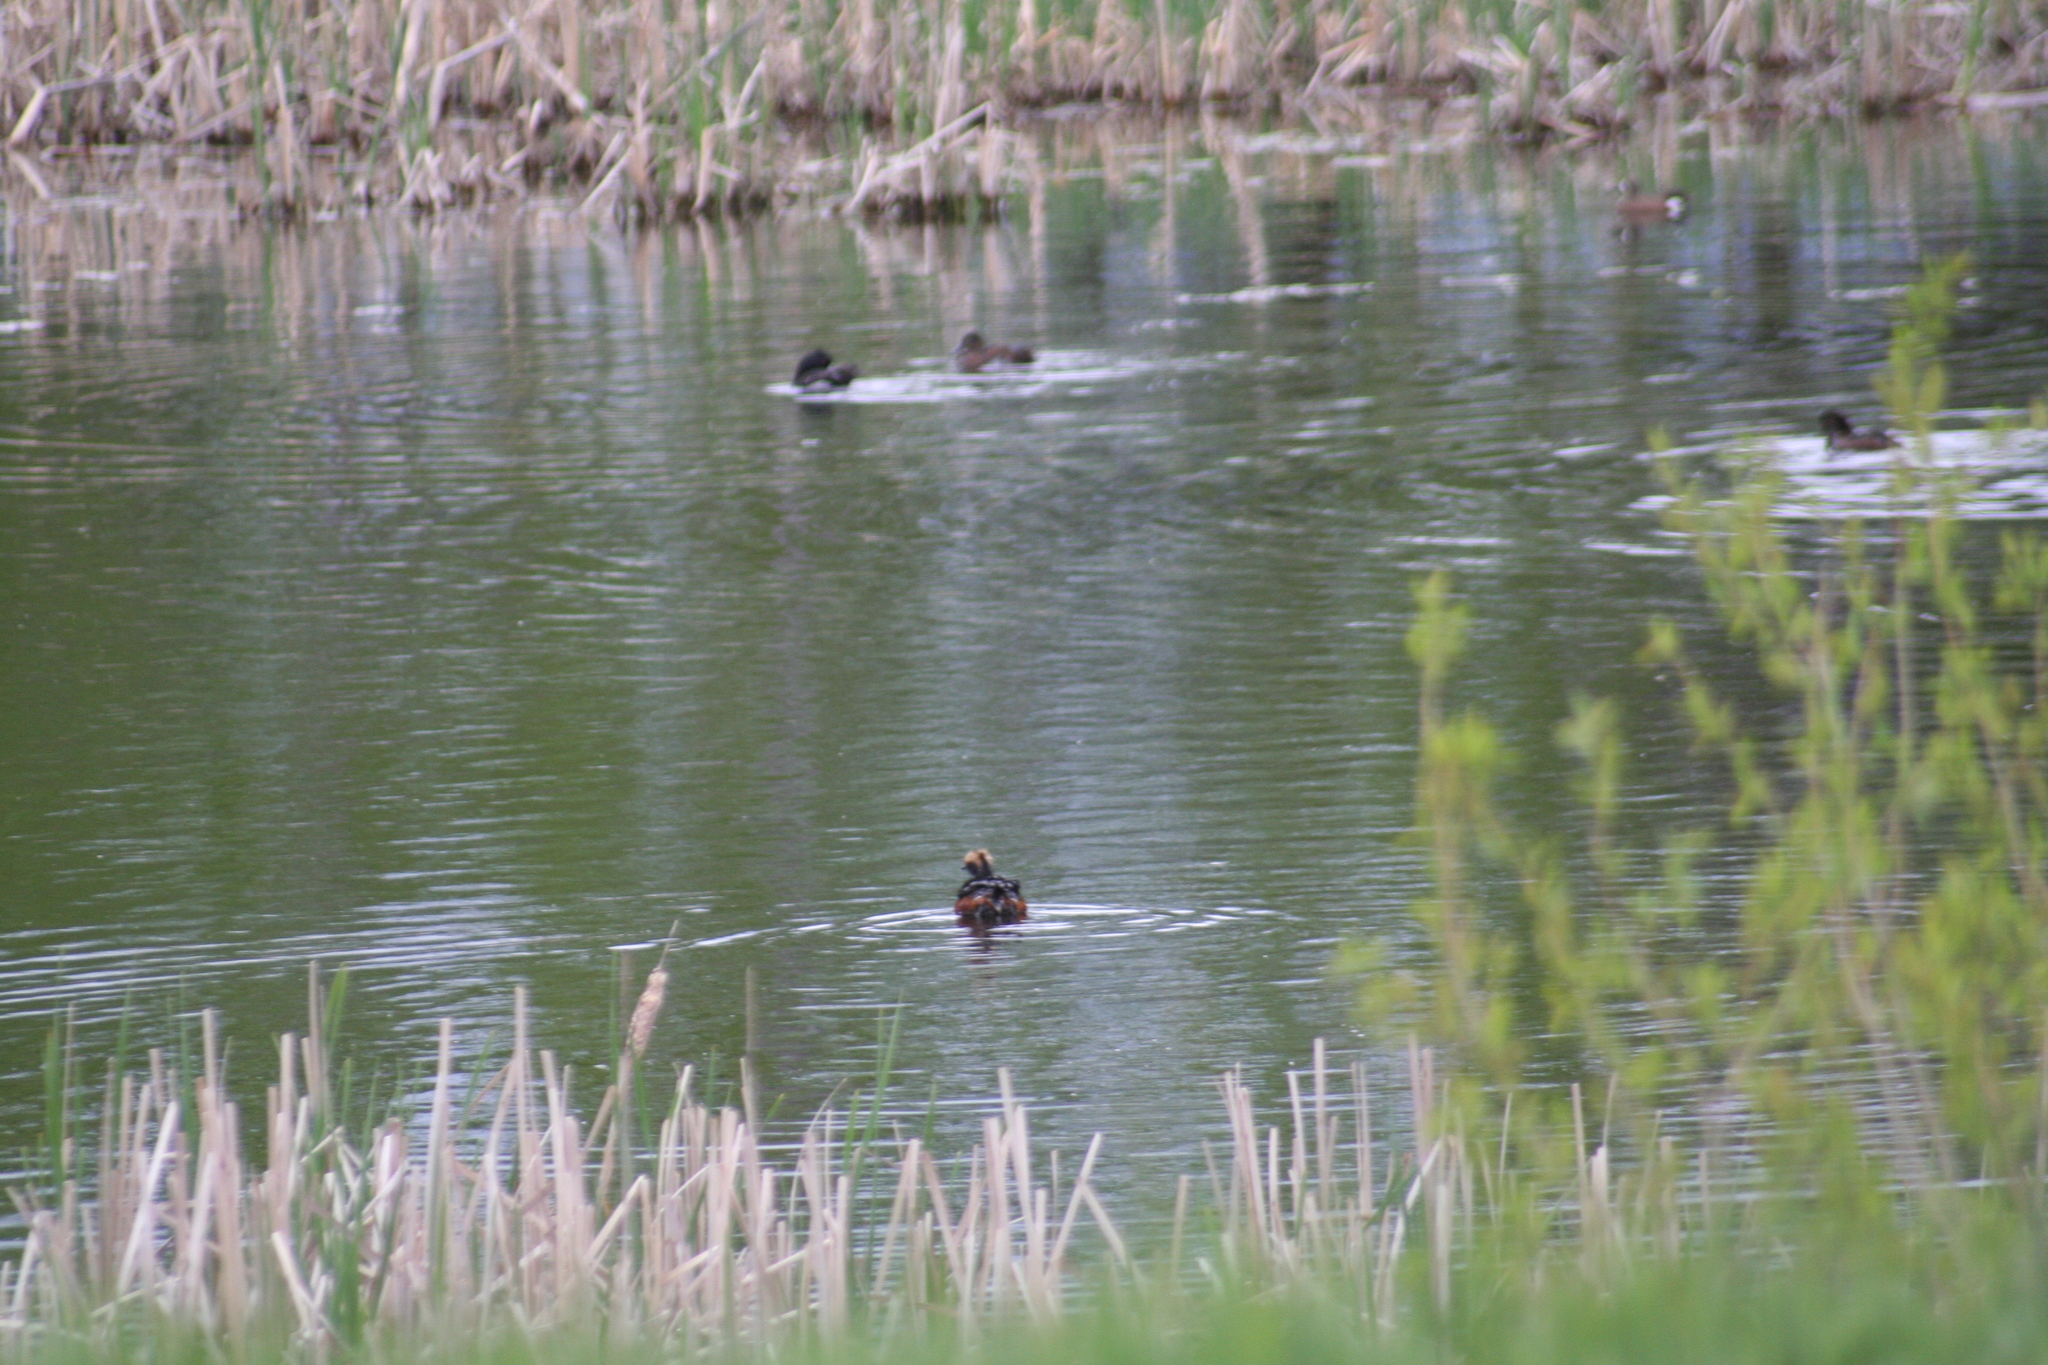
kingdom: Animalia
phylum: Chordata
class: Aves
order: Podicipediformes
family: Podicipedidae
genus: Podiceps
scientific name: Podiceps auritus
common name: Horned grebe
